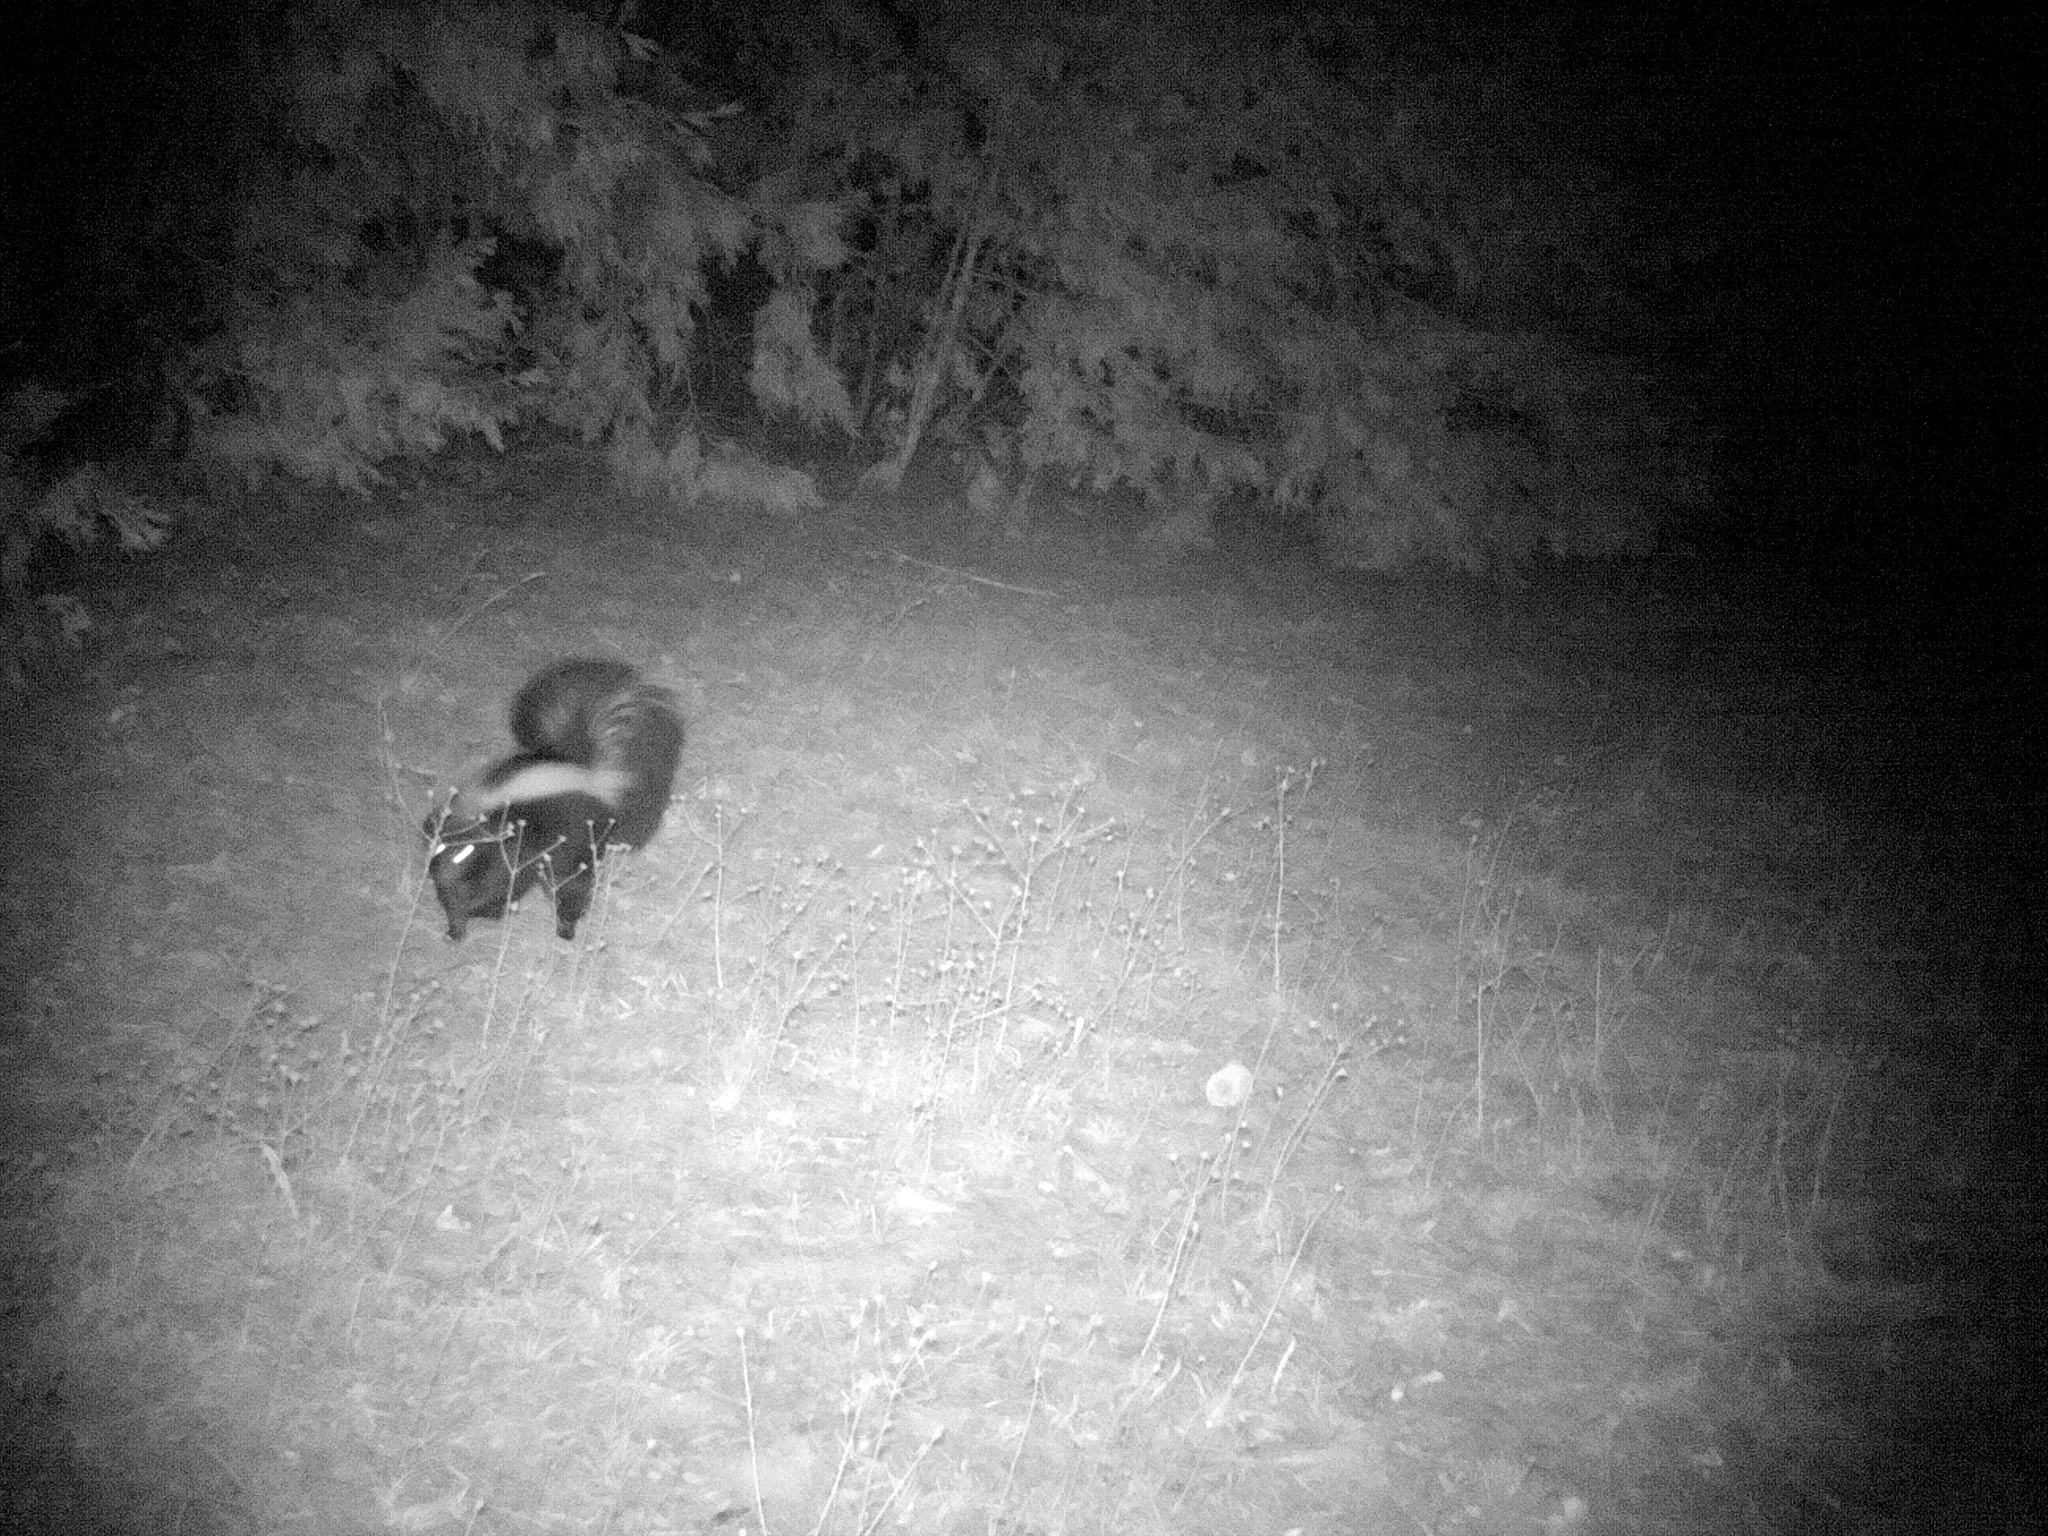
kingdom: Animalia
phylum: Chordata
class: Mammalia
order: Carnivora
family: Mephitidae
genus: Mephitis
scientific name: Mephitis mephitis
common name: Striped skunk
